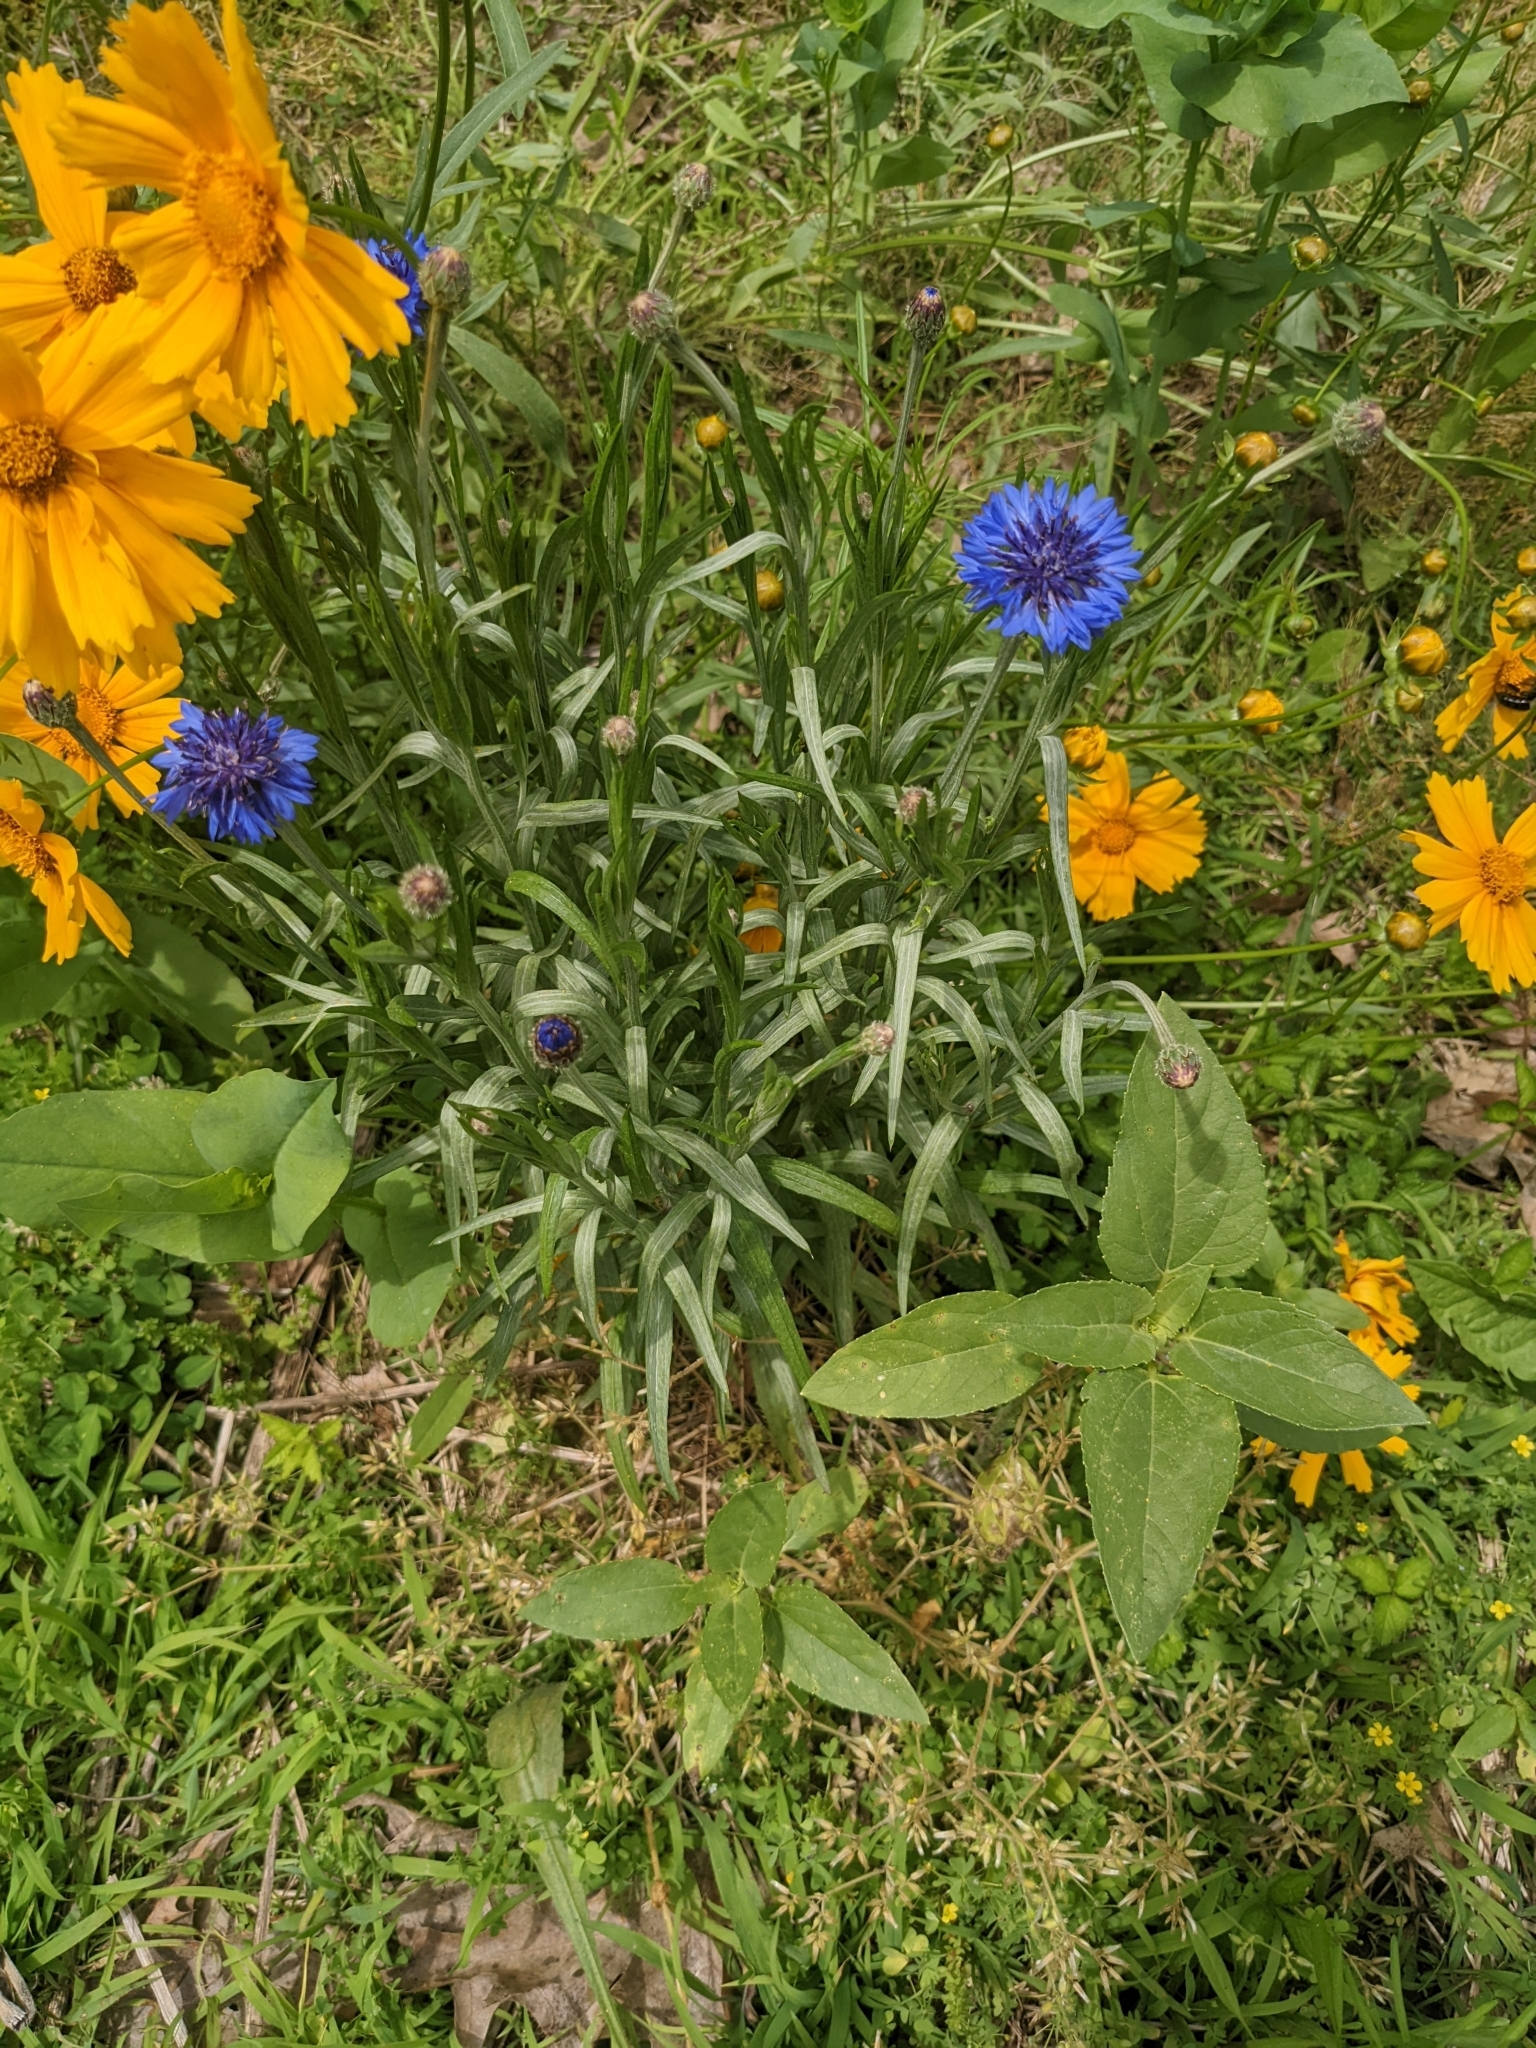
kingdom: Plantae
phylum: Tracheophyta
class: Magnoliopsida
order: Asterales
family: Asteraceae
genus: Centaurea
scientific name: Centaurea cyanus
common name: Cornflower
